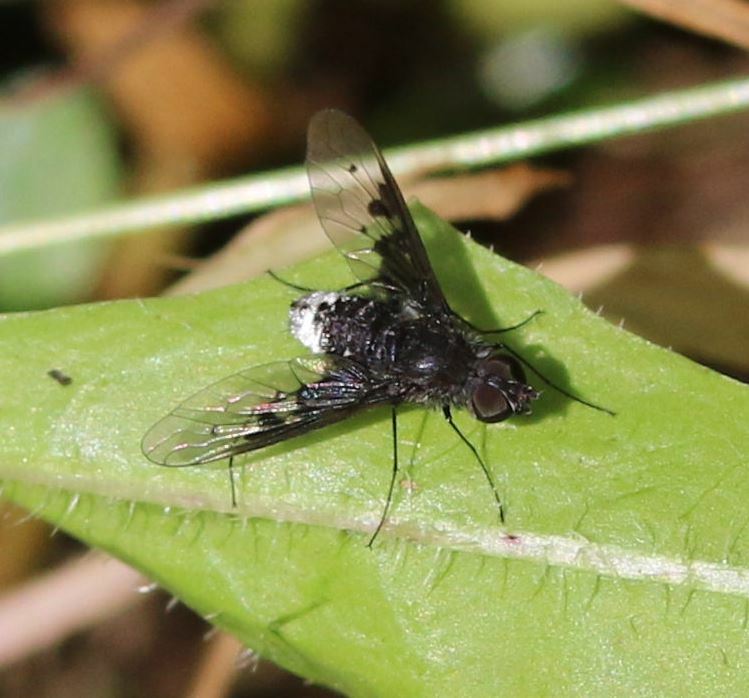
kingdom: Animalia
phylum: Arthropoda
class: Insecta
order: Diptera
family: Bombyliidae
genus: Anthrax
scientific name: Anthrax trifasciatus
